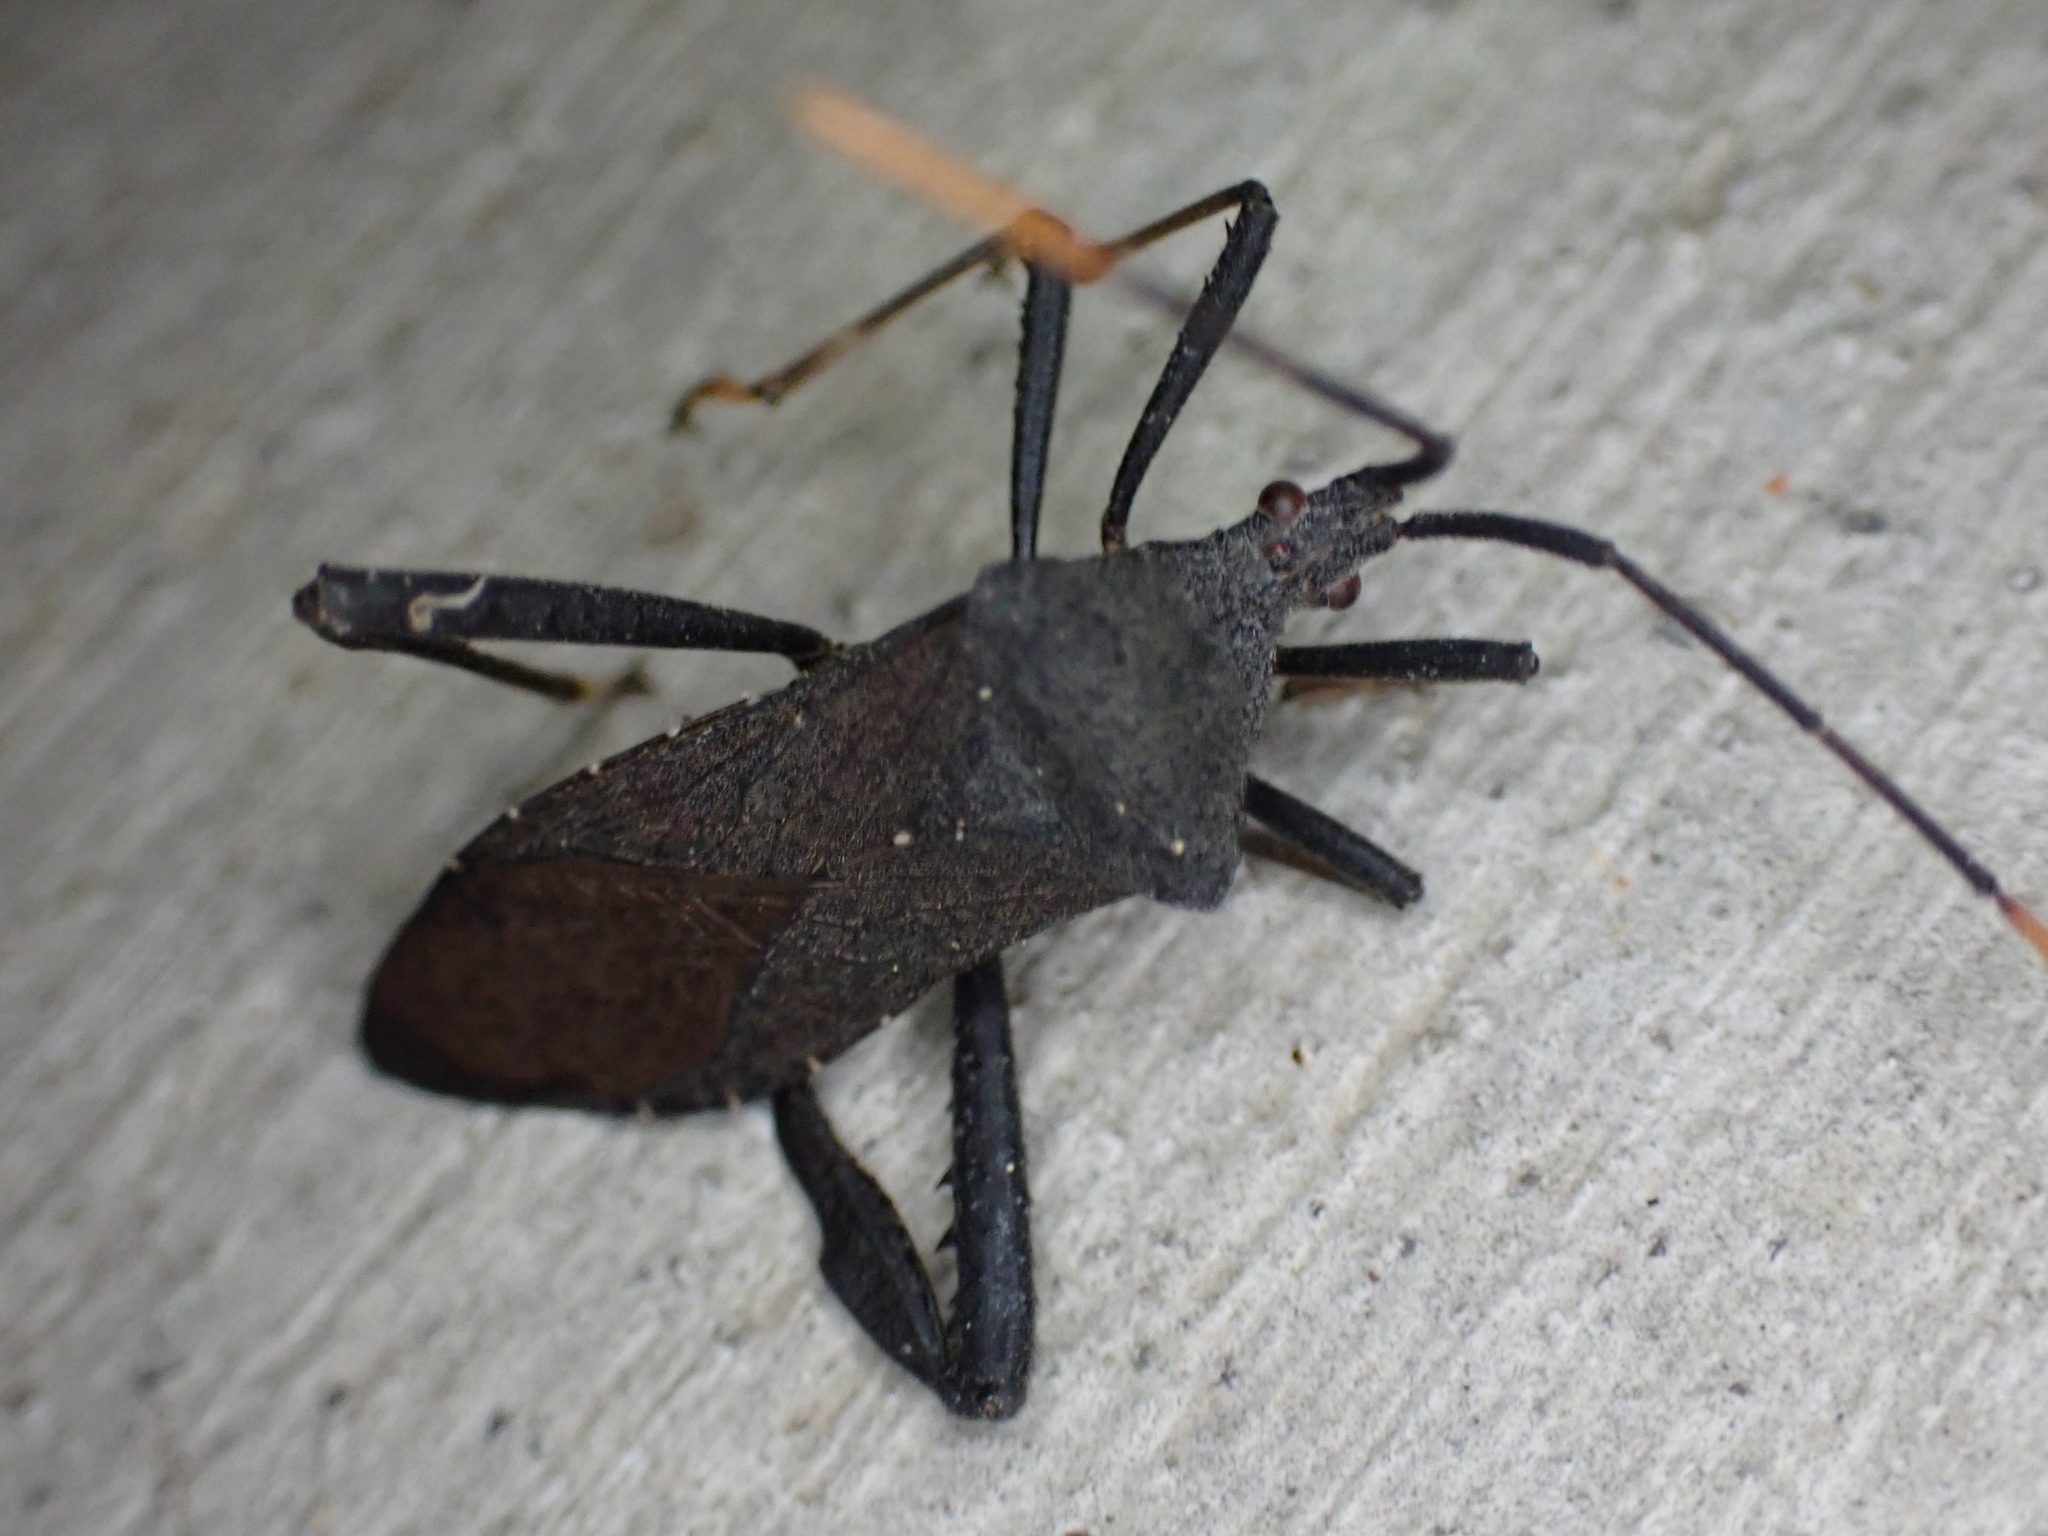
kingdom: Animalia
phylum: Arthropoda
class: Insecta
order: Hemiptera
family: Coreidae
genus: Acanthocephala
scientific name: Acanthocephala terminalis
